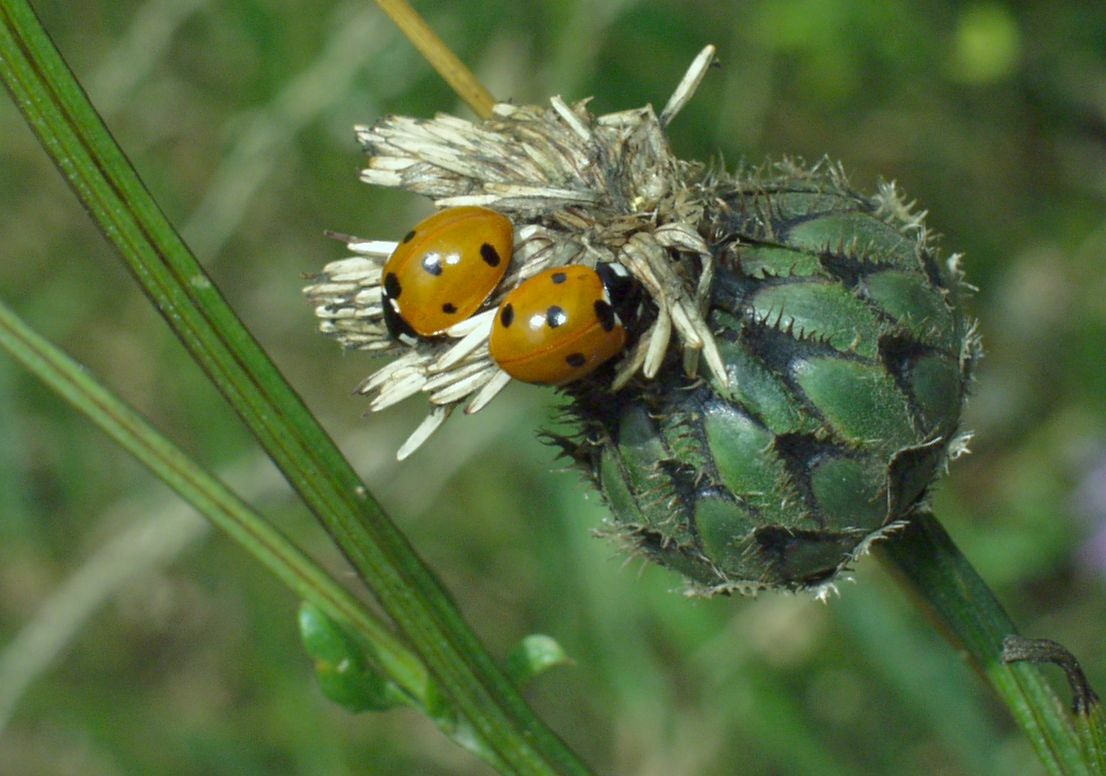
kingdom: Animalia
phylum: Arthropoda
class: Insecta
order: Coleoptera
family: Coccinellidae
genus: Coccinella
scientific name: Coccinella septempunctata
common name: Sevenspotted lady beetle
